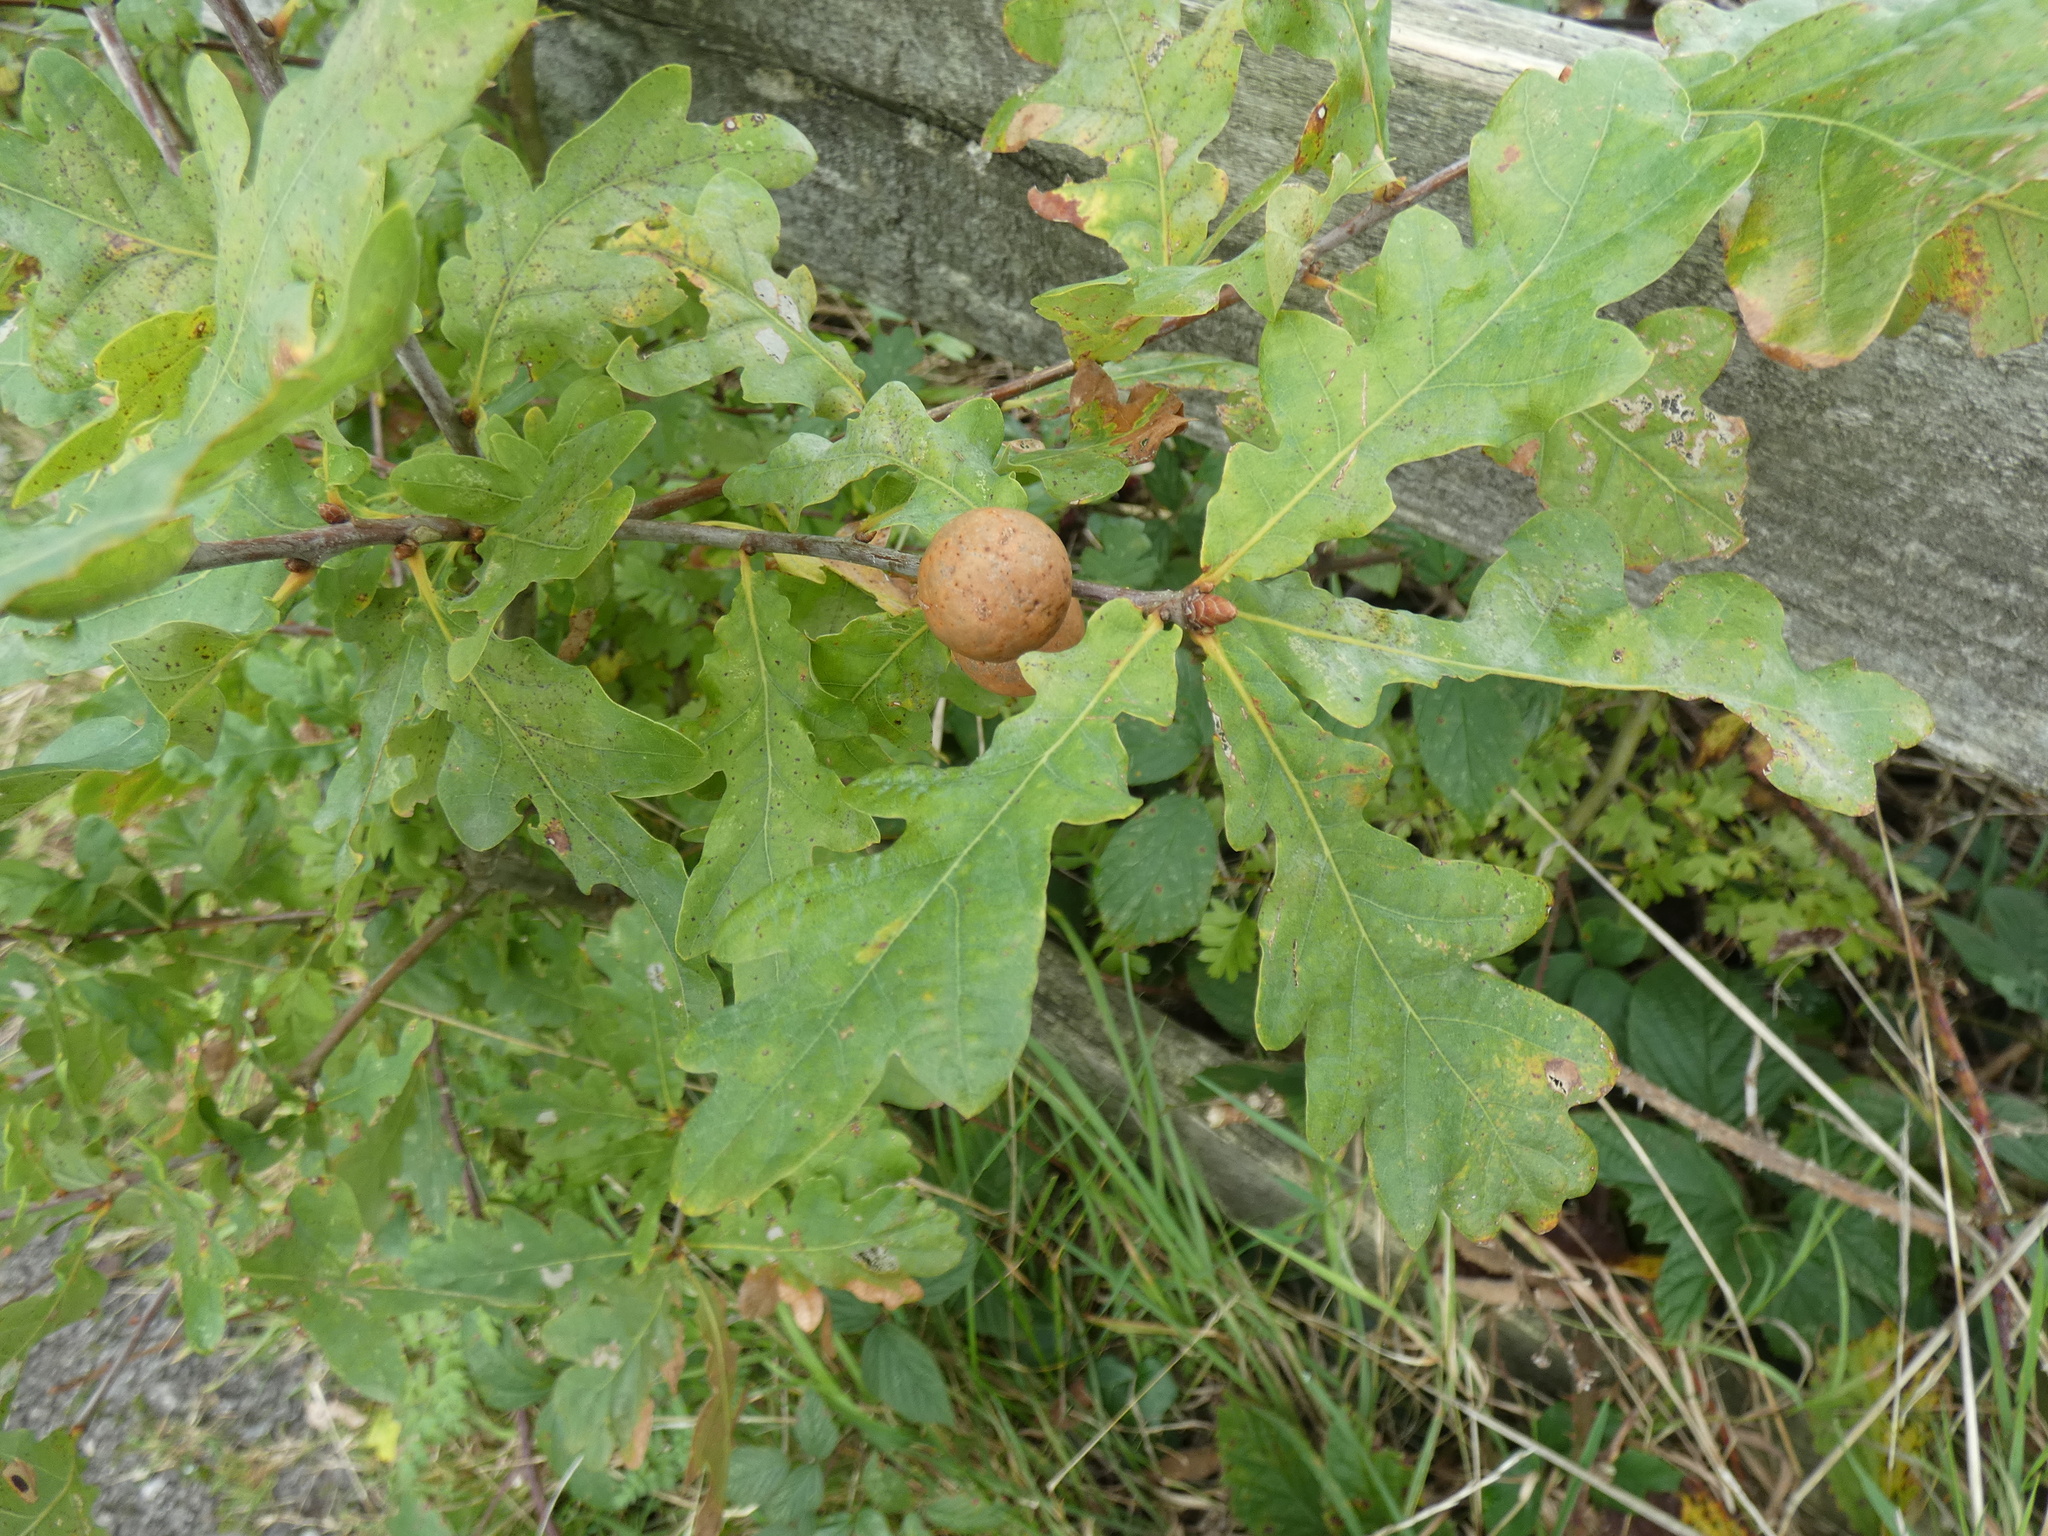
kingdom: Animalia
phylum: Arthropoda
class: Insecta
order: Hymenoptera
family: Cynipidae
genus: Andricus
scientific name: Andricus kollari
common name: Marble gall
